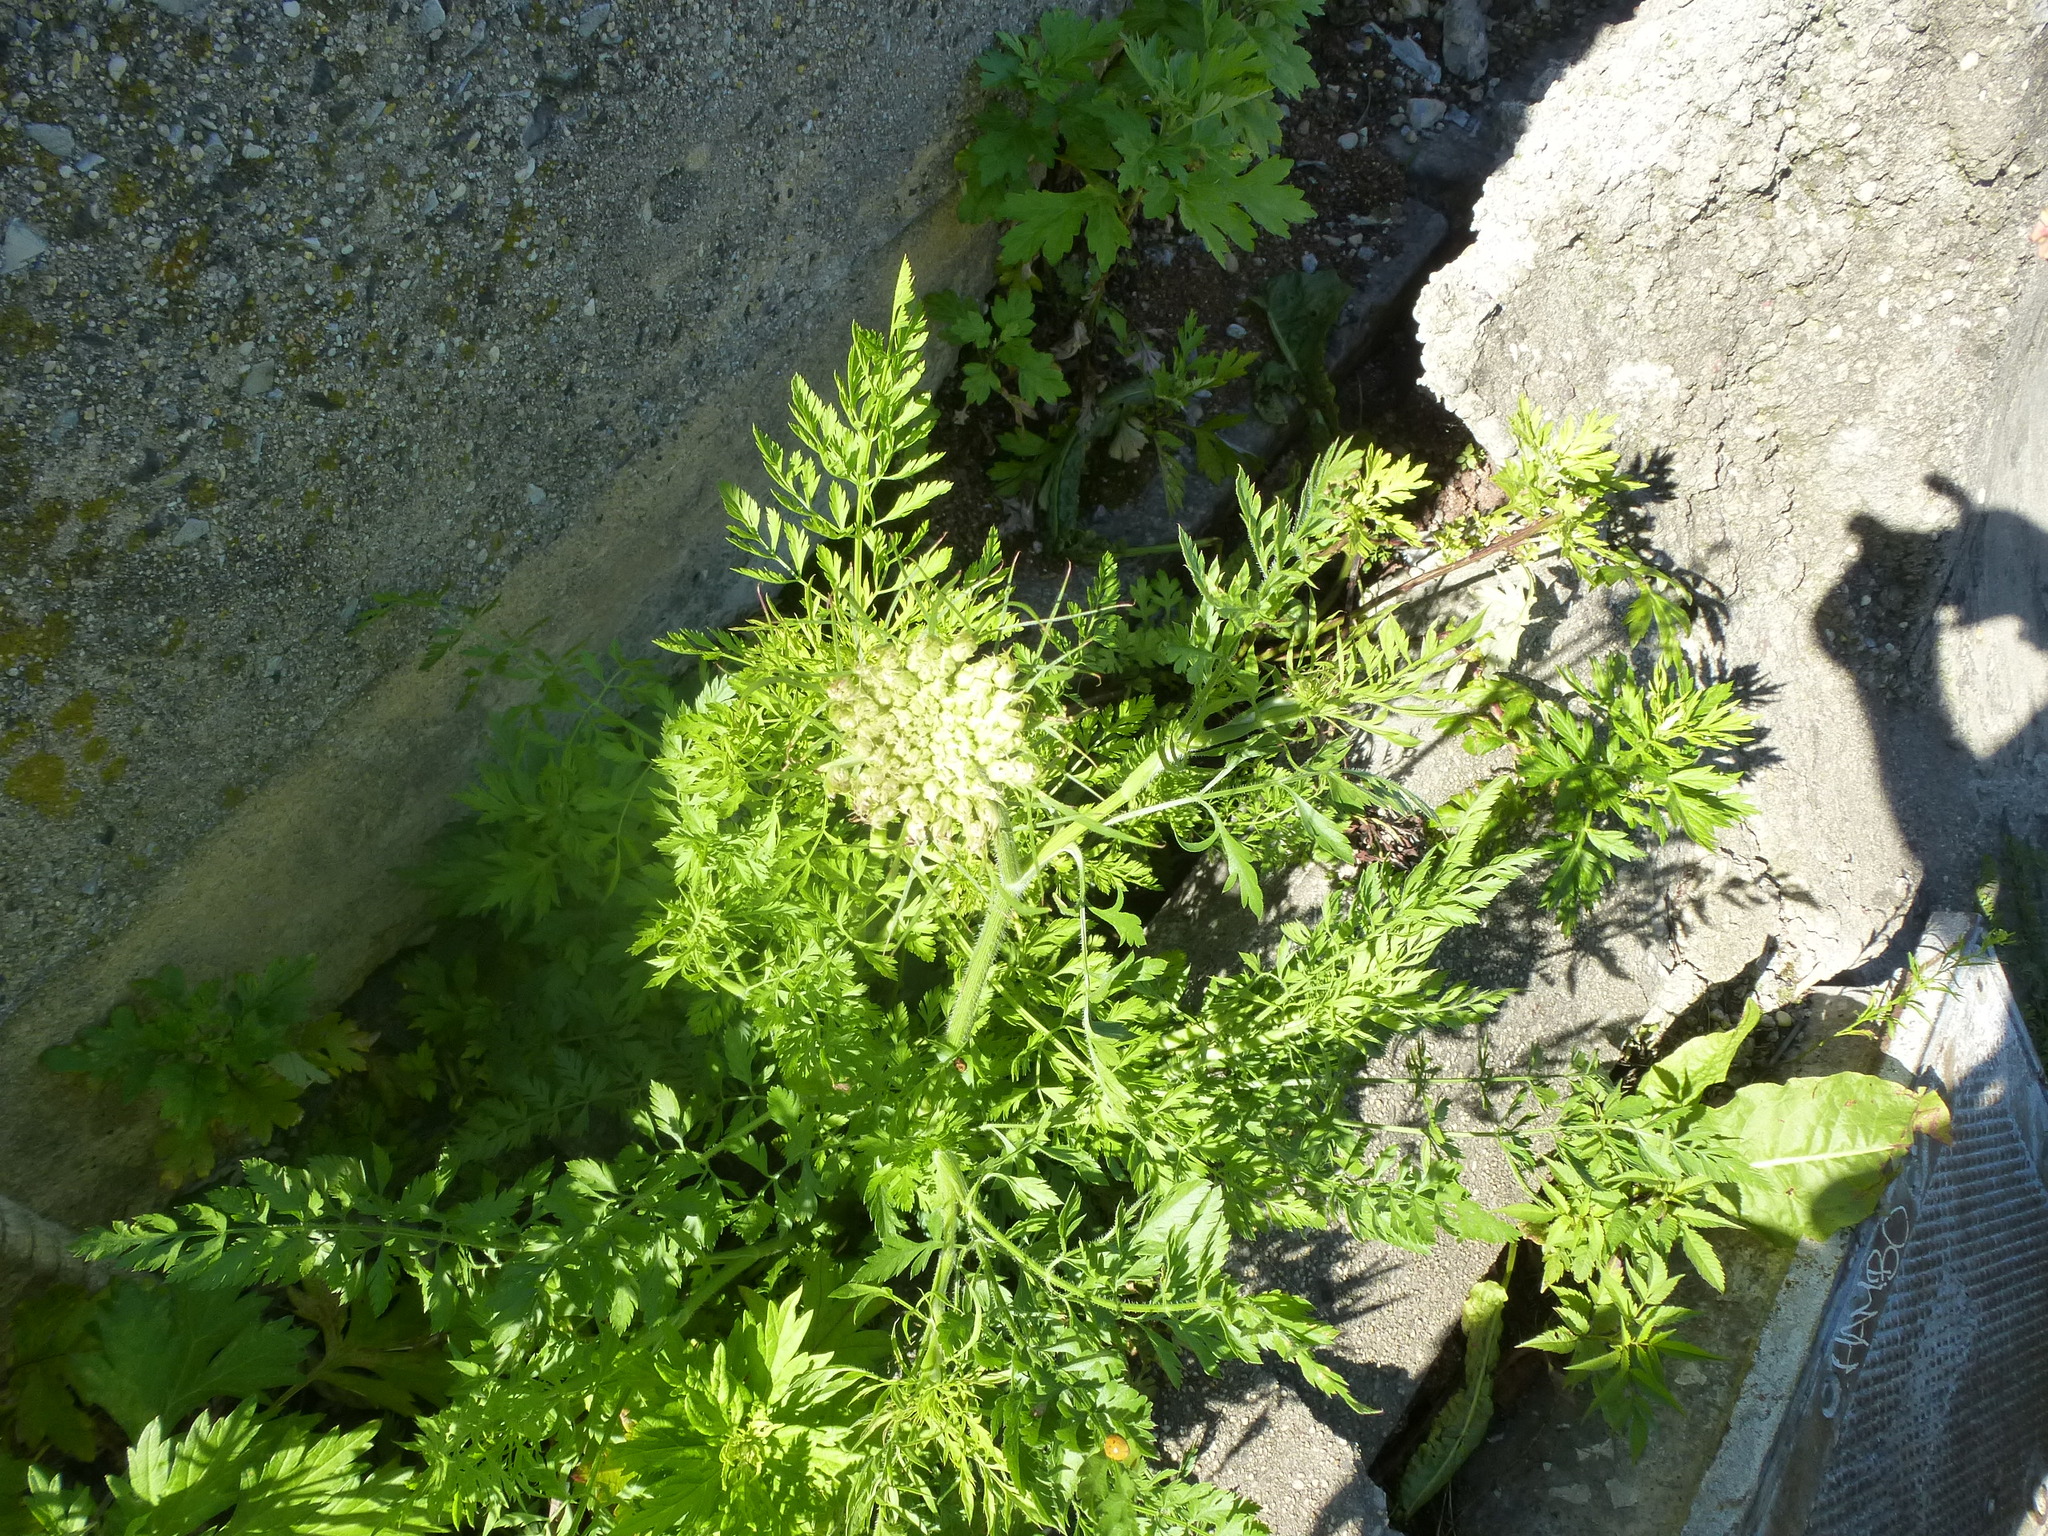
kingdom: Plantae
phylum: Tracheophyta
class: Magnoliopsida
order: Apiales
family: Apiaceae
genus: Daucus
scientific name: Daucus carota
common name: Wild carrot
